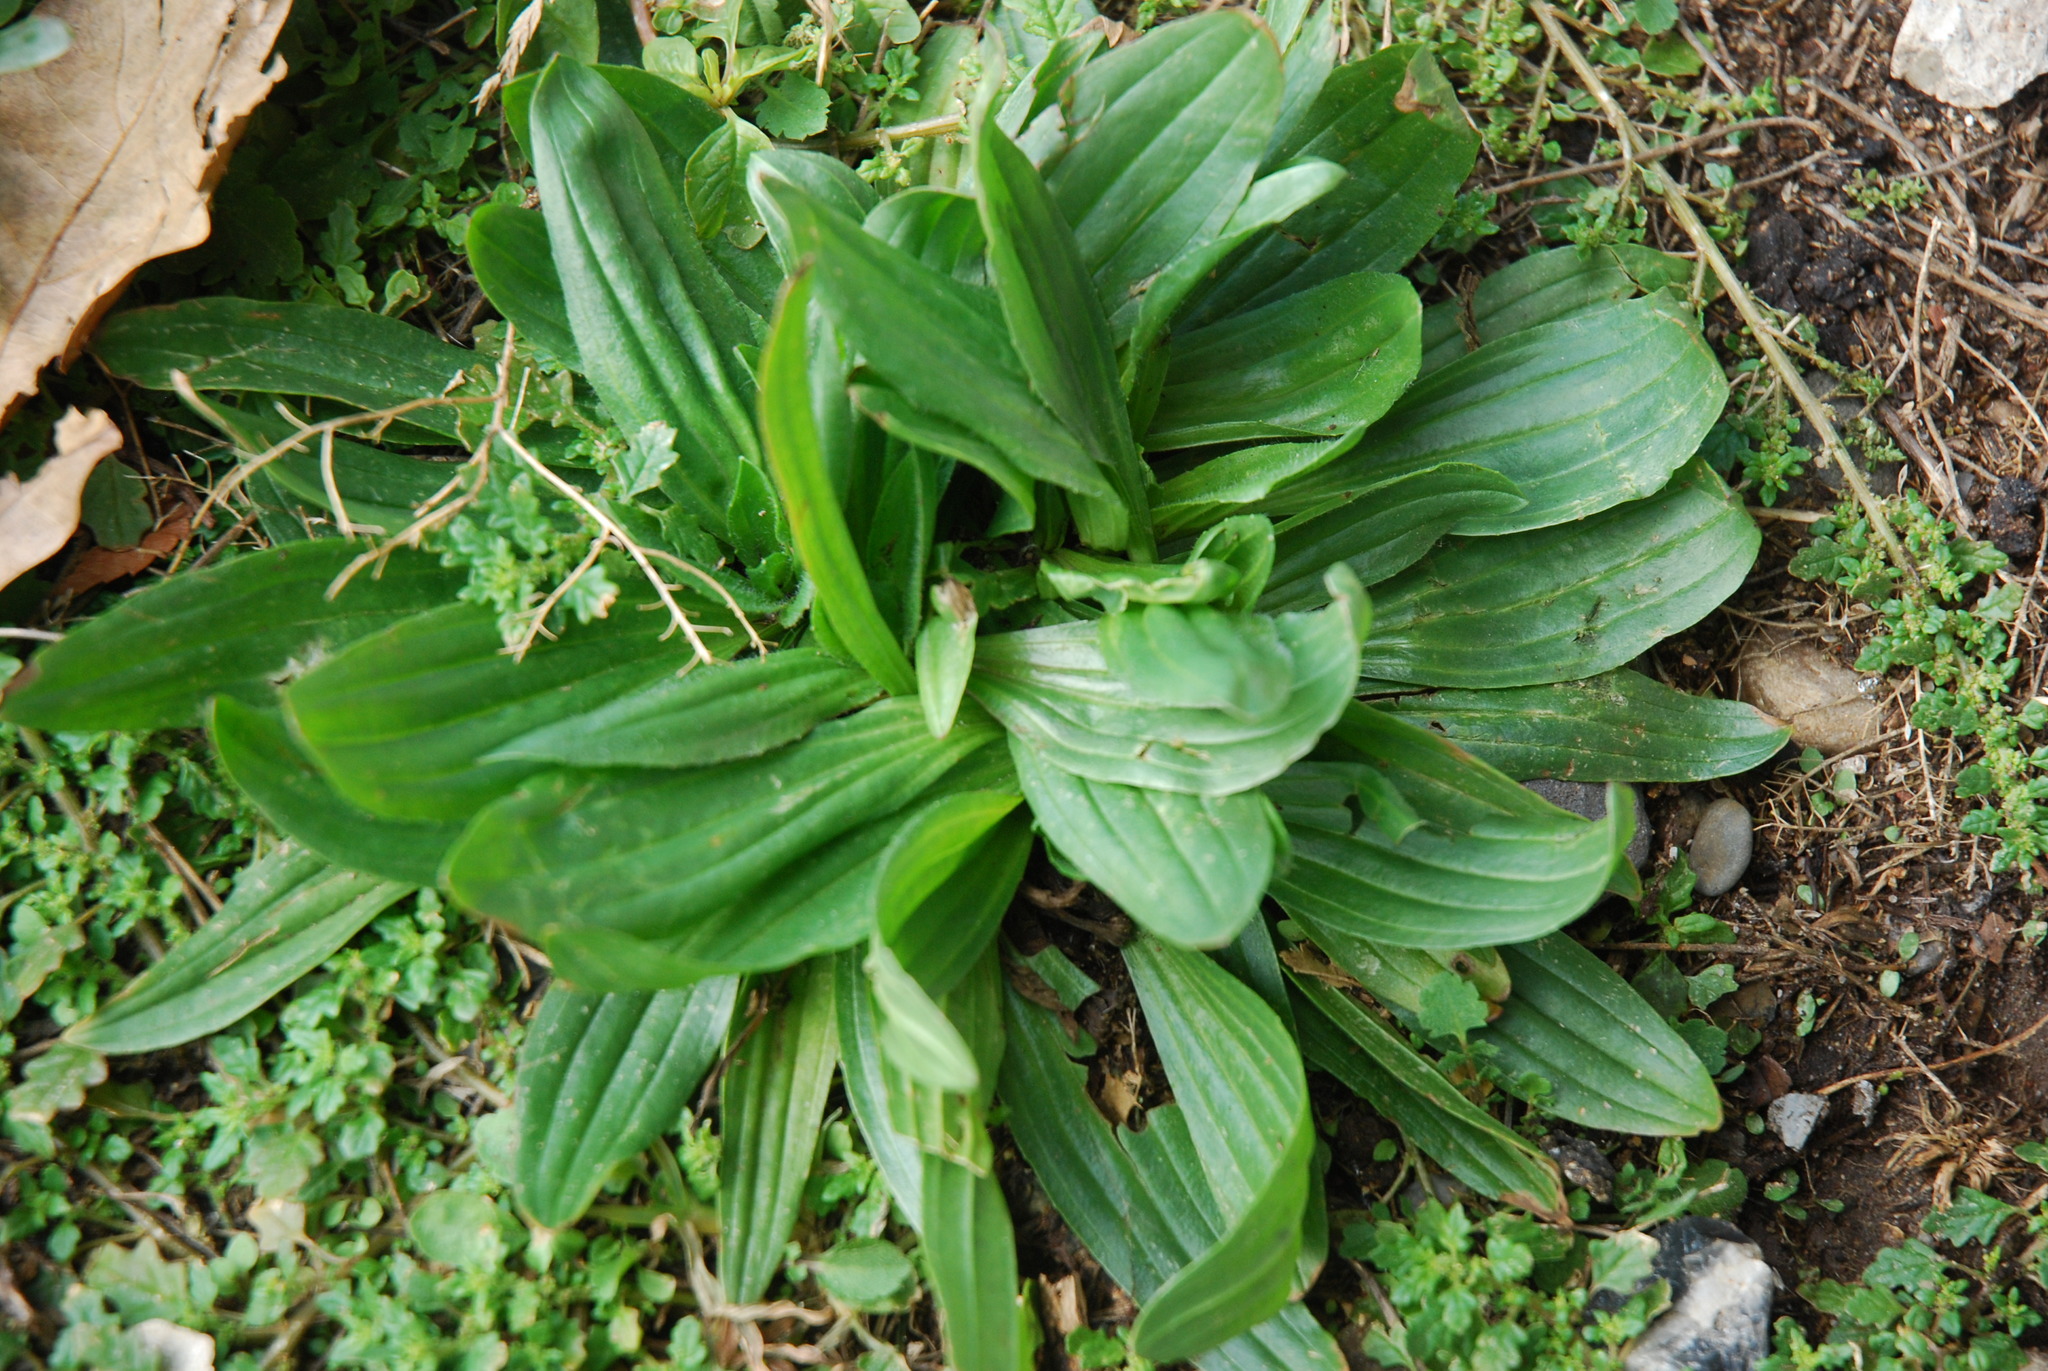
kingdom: Plantae
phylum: Tracheophyta
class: Magnoliopsida
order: Lamiales
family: Plantaginaceae
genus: Plantago
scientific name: Plantago lanceolata
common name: Ribwort plantain
